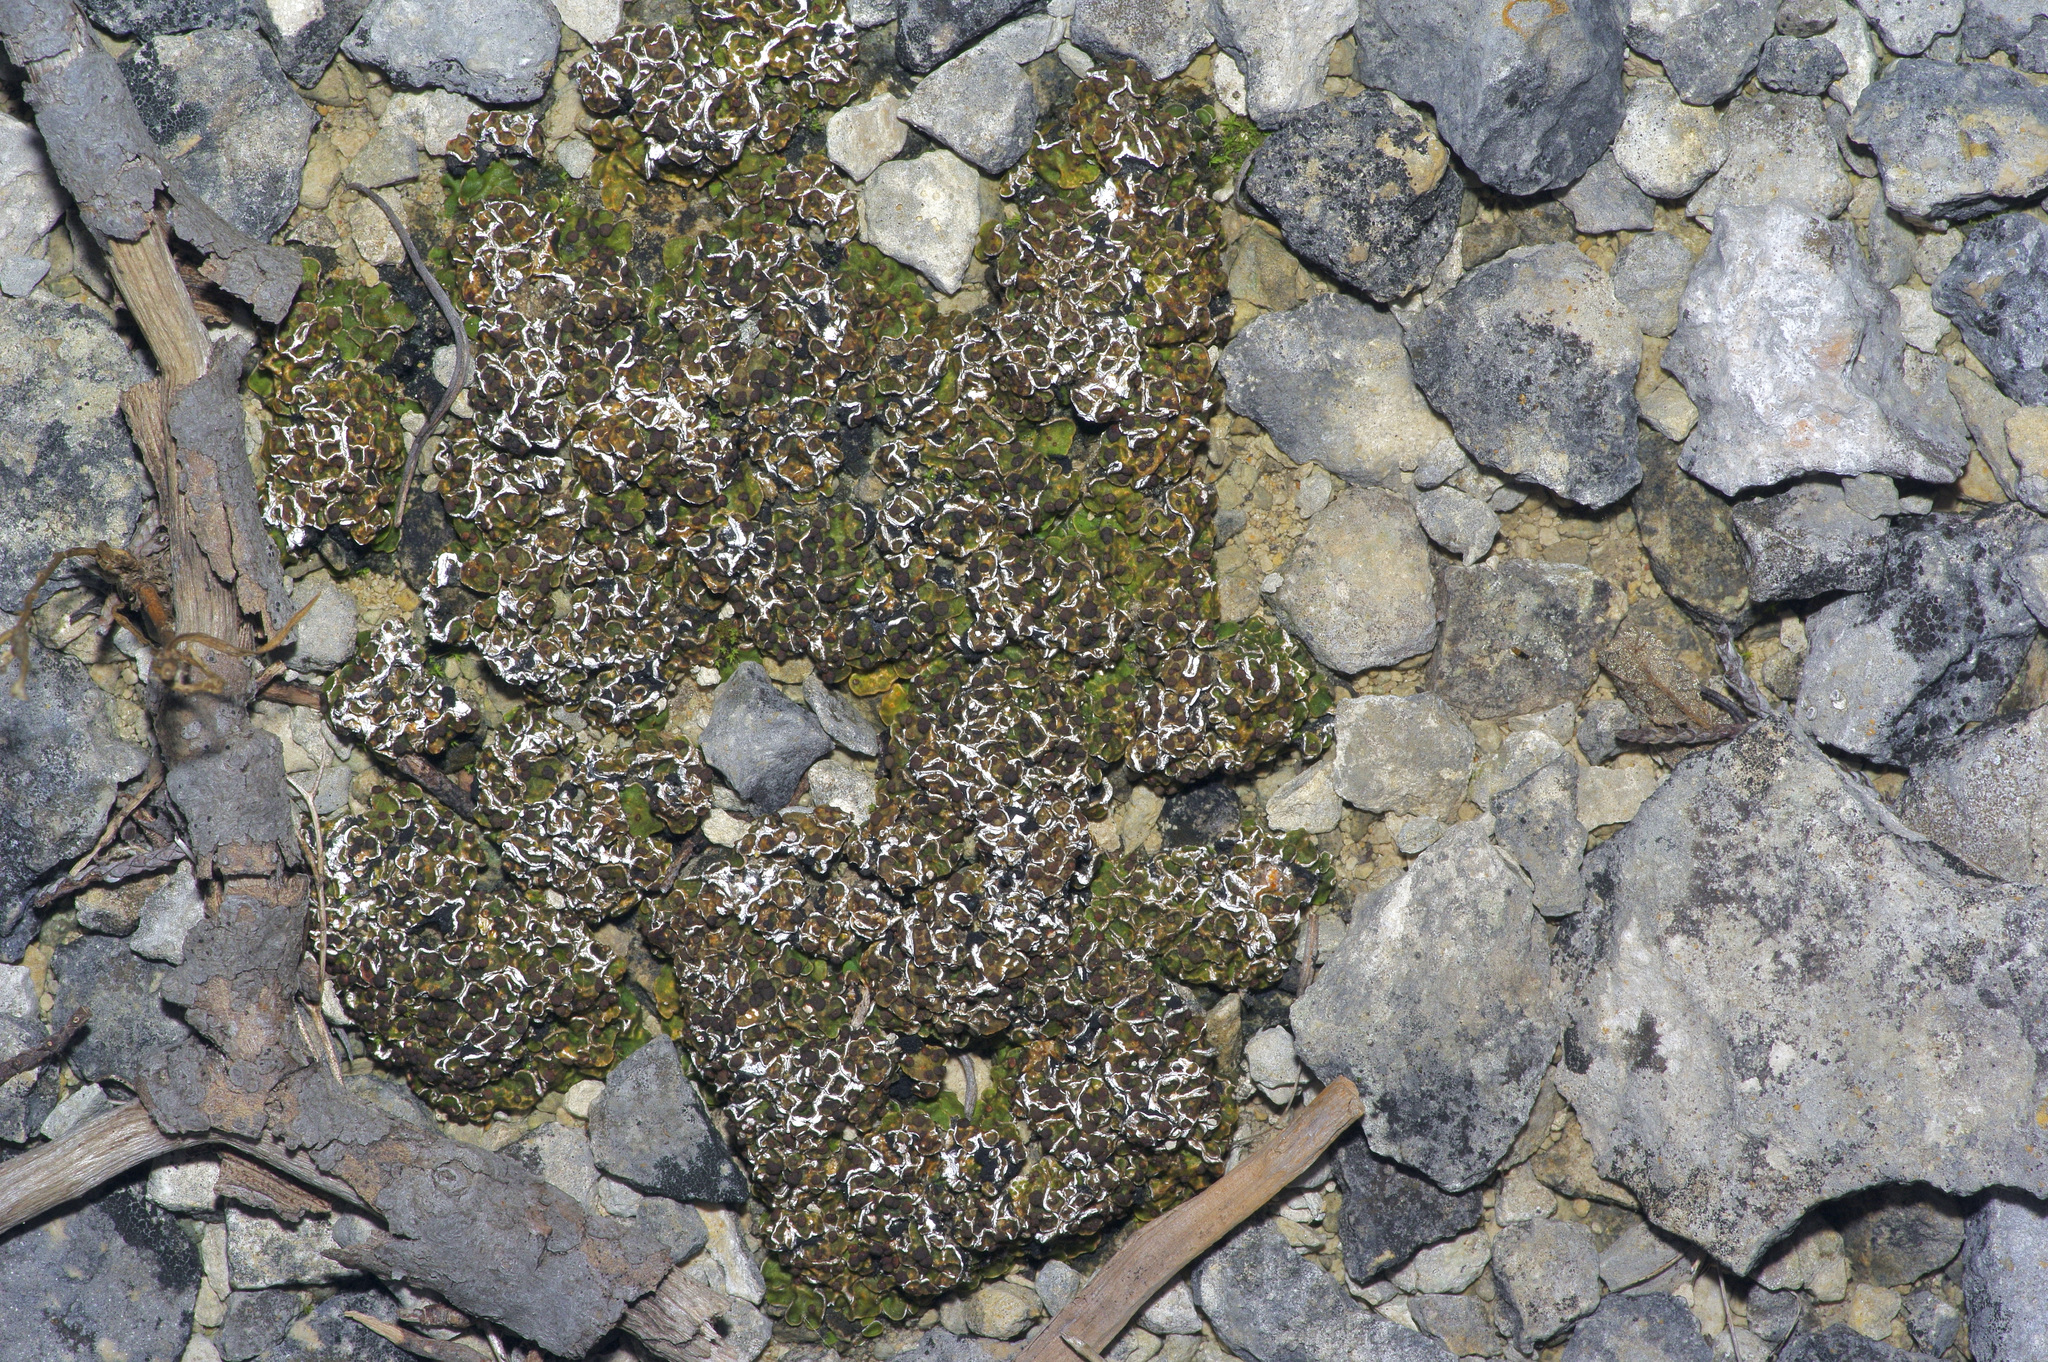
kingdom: Fungi
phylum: Ascomycota
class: Lecanoromycetes
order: Lecanorales
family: Psoraceae
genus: Psora
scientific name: Psora russellii
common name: Russell's fishscale lichen
